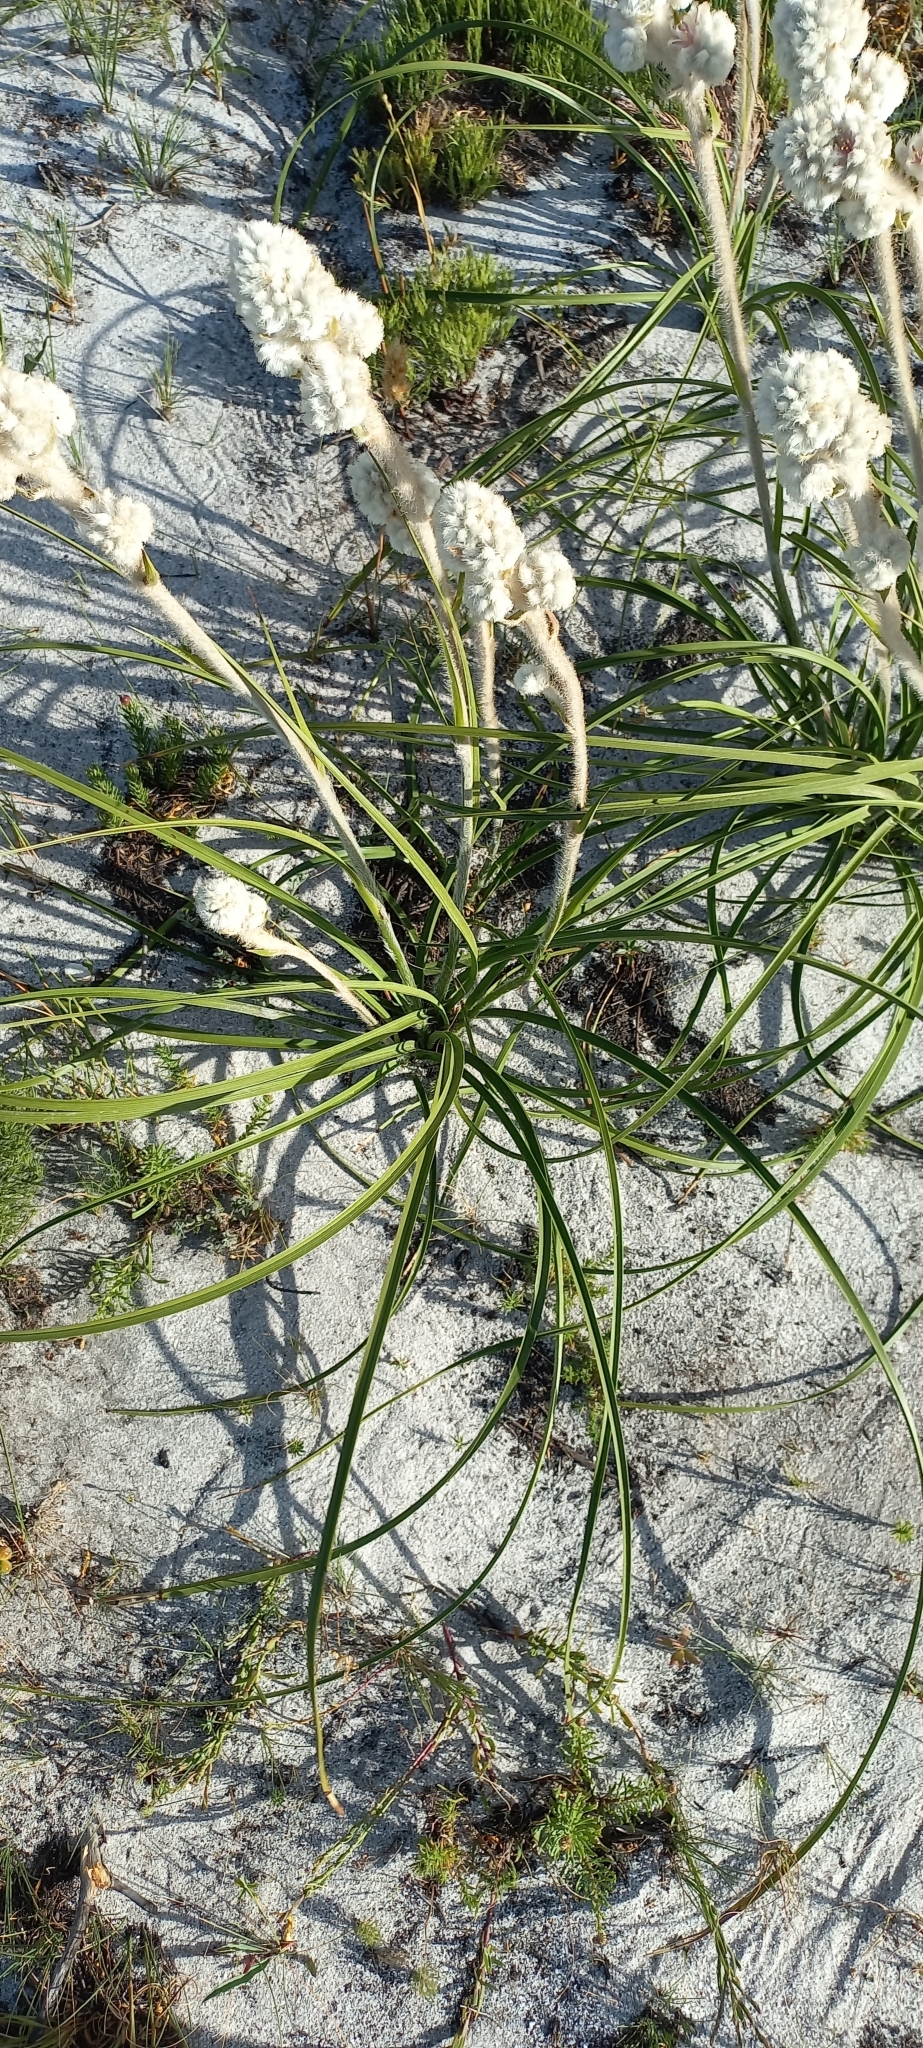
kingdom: Plantae
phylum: Tracheophyta
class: Liliopsida
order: Asparagales
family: Lanariaceae
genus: Lanaria
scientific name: Lanaria lanata
